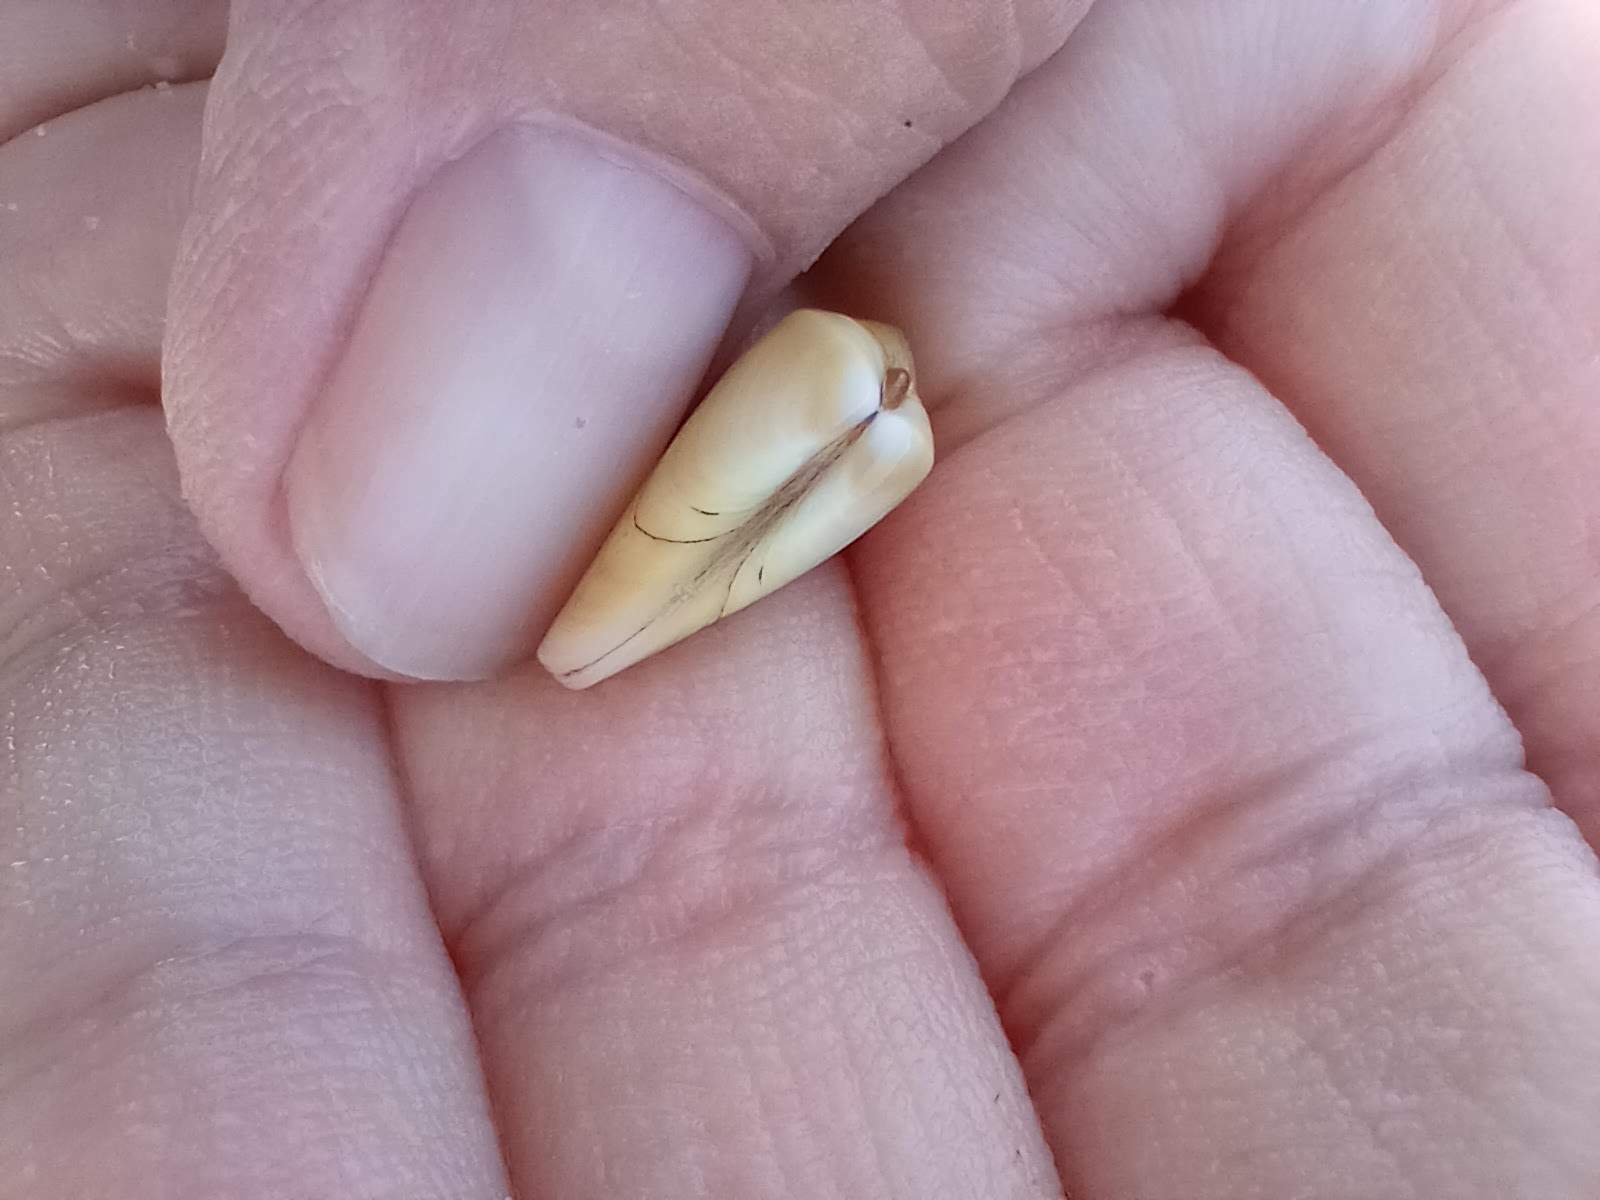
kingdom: Animalia
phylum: Mollusca
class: Bivalvia
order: Cardiida
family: Donacidae
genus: Donax
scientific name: Donax variabilis
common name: Butterfly shell
